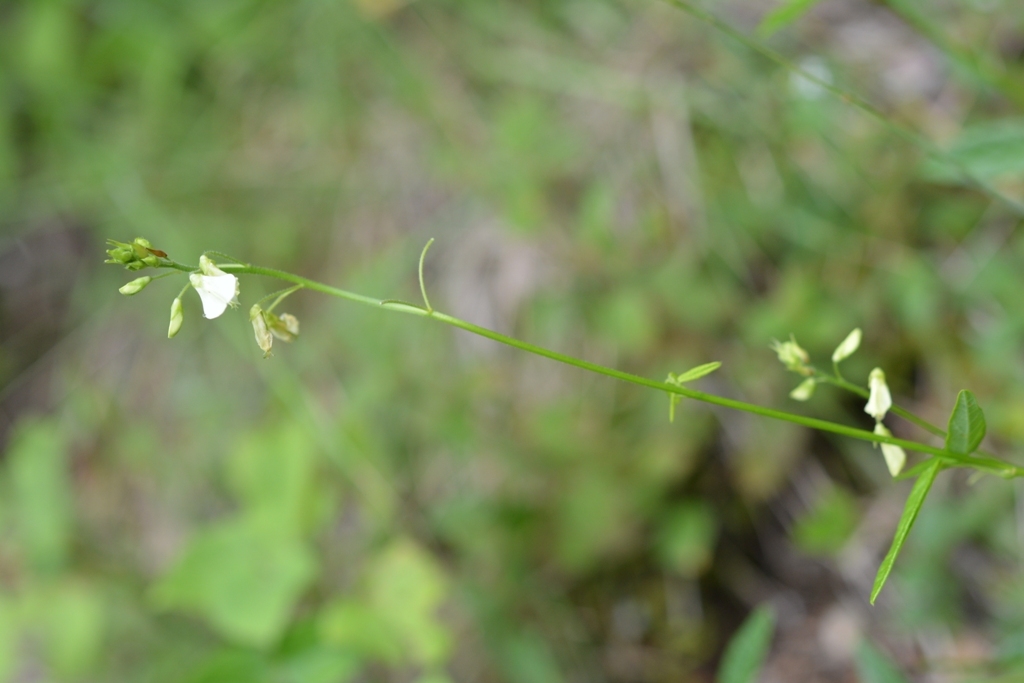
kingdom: Plantae
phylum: Tracheophyta
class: Magnoliopsida
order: Fabales
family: Fabaceae
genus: Desmodium
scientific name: Desmodium macrostachyum
